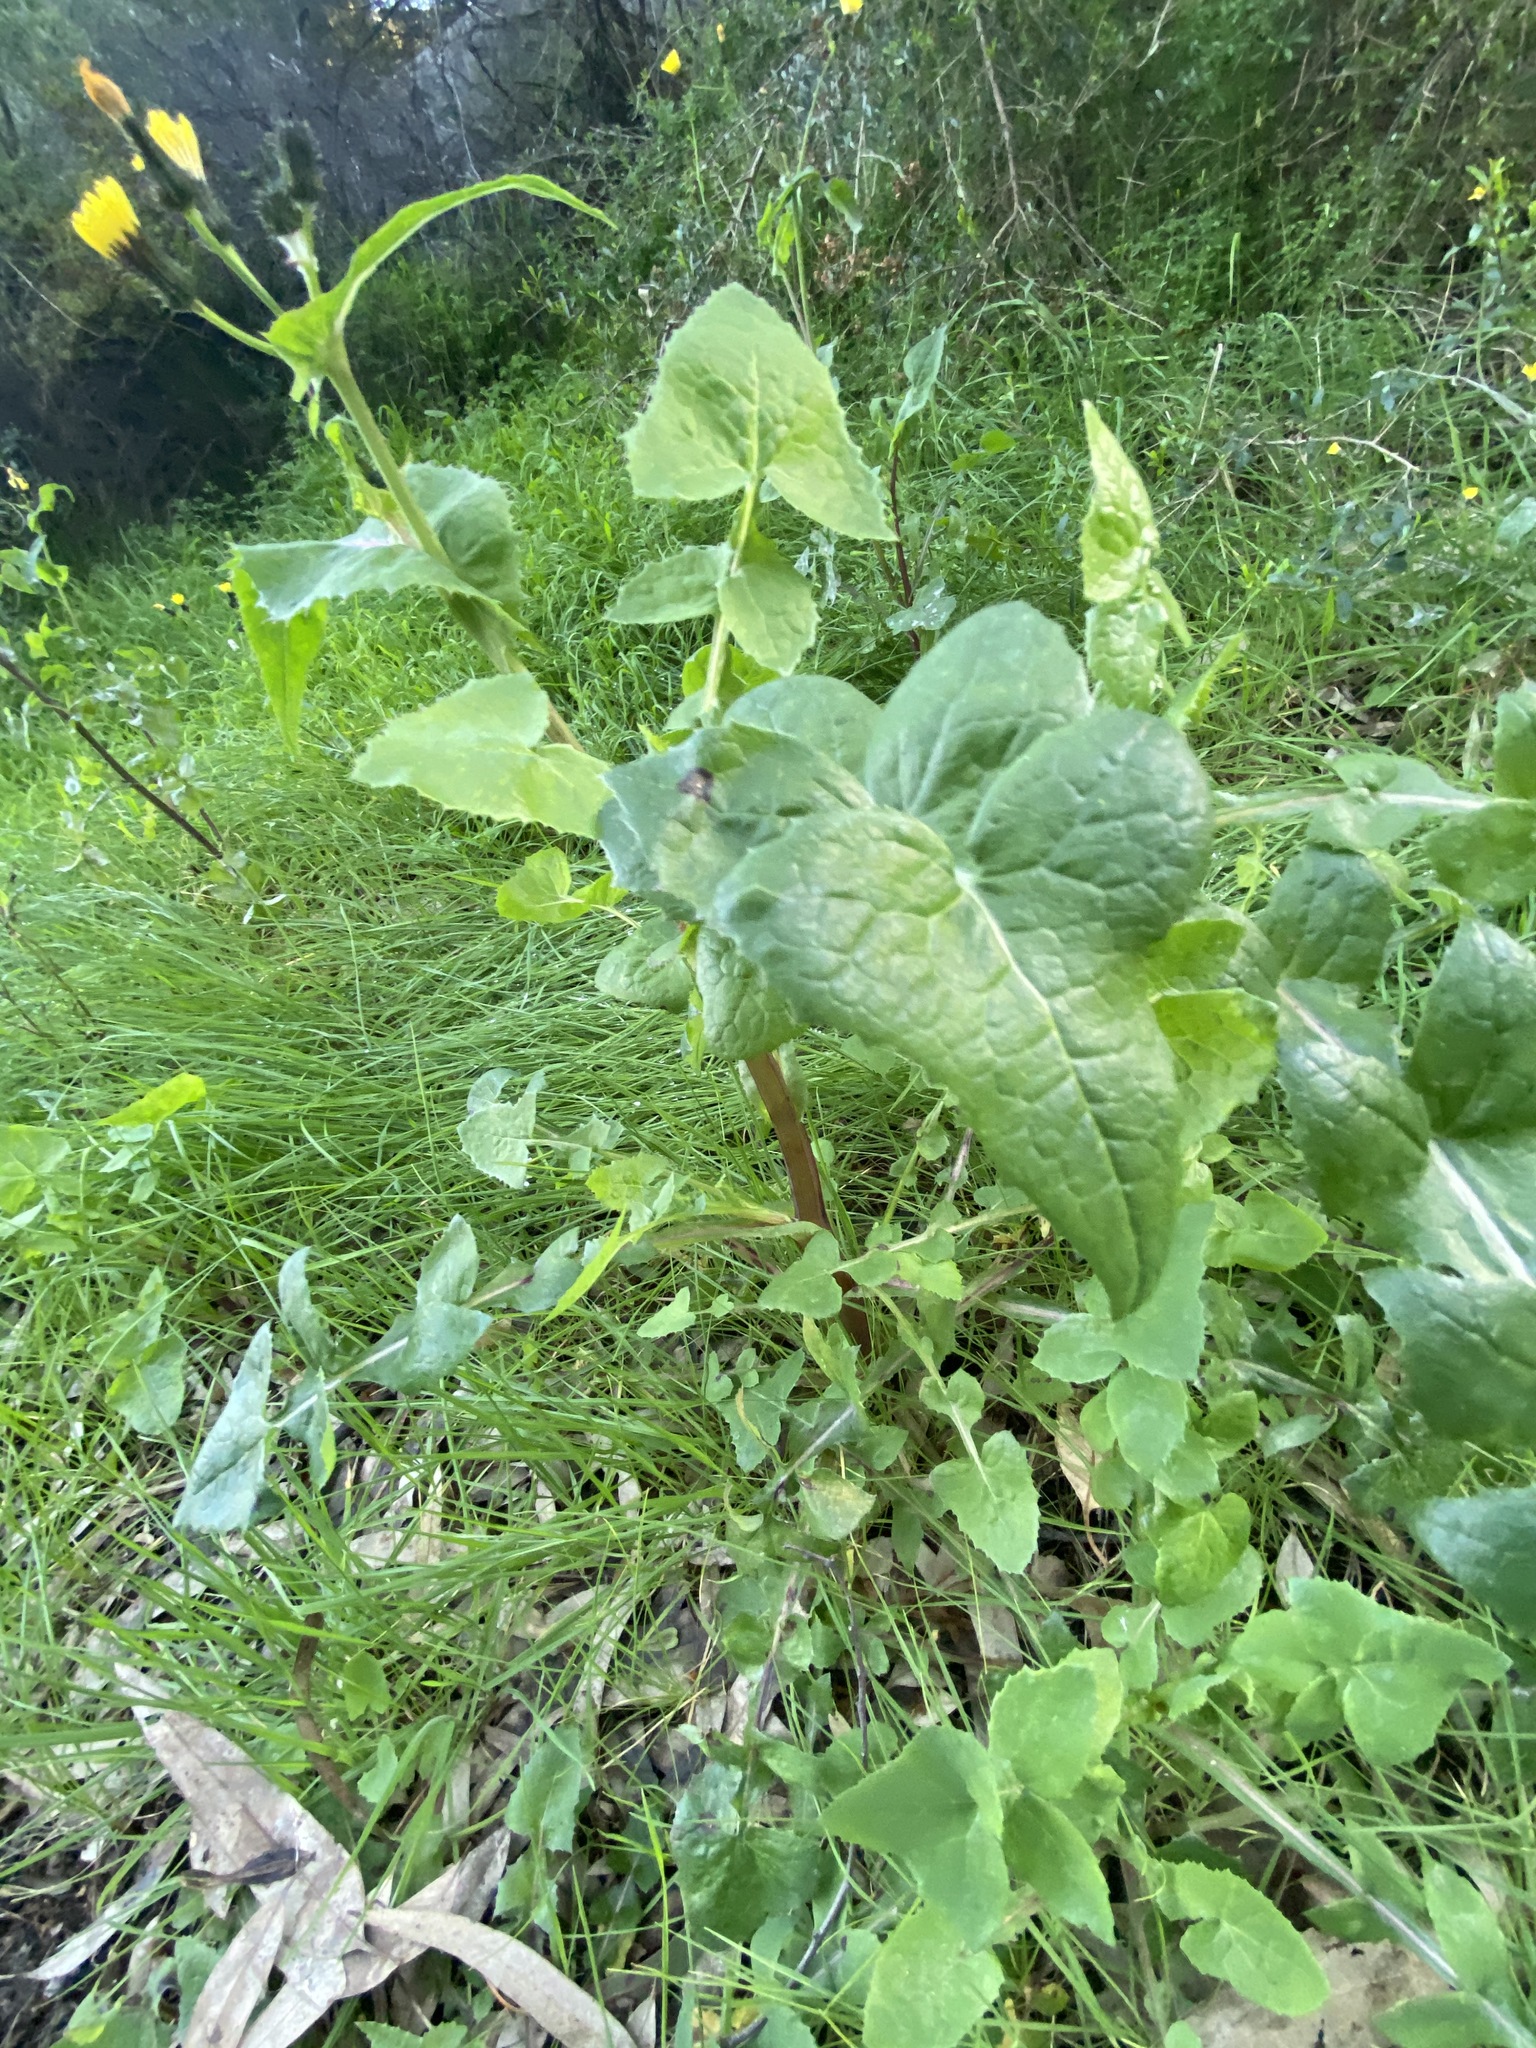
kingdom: Plantae
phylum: Tracheophyta
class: Magnoliopsida
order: Asterales
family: Asteraceae
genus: Sonchus
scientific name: Sonchus oleraceus
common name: Common sowthistle
